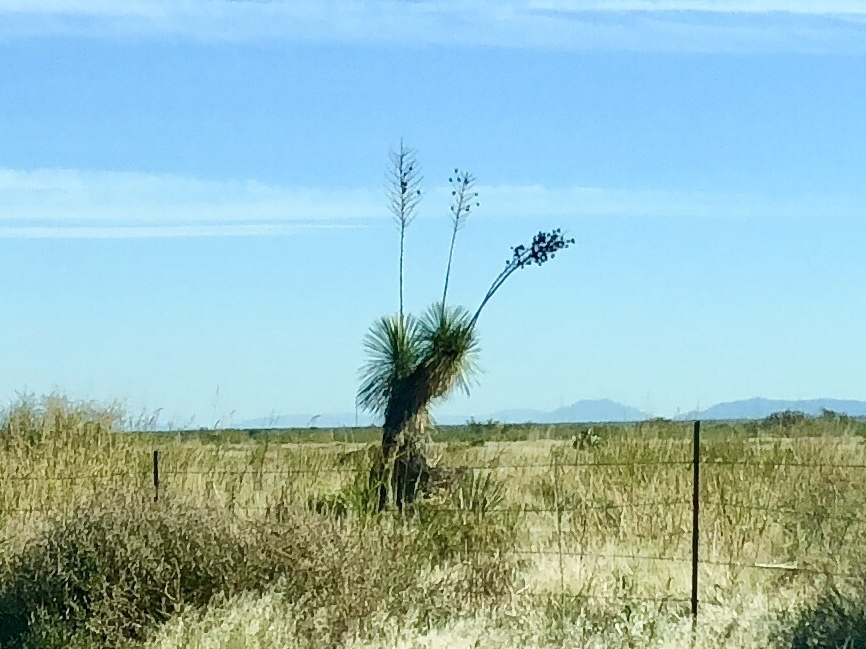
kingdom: Plantae
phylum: Tracheophyta
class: Liliopsida
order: Asparagales
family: Asparagaceae
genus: Yucca
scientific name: Yucca elata
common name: Palmella
